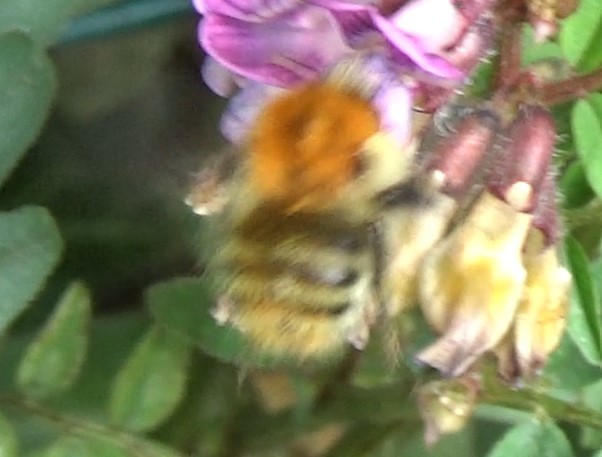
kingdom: Animalia
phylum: Arthropoda
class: Insecta
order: Hymenoptera
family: Apidae
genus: Bombus
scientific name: Bombus pascuorum
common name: Common carder bee
